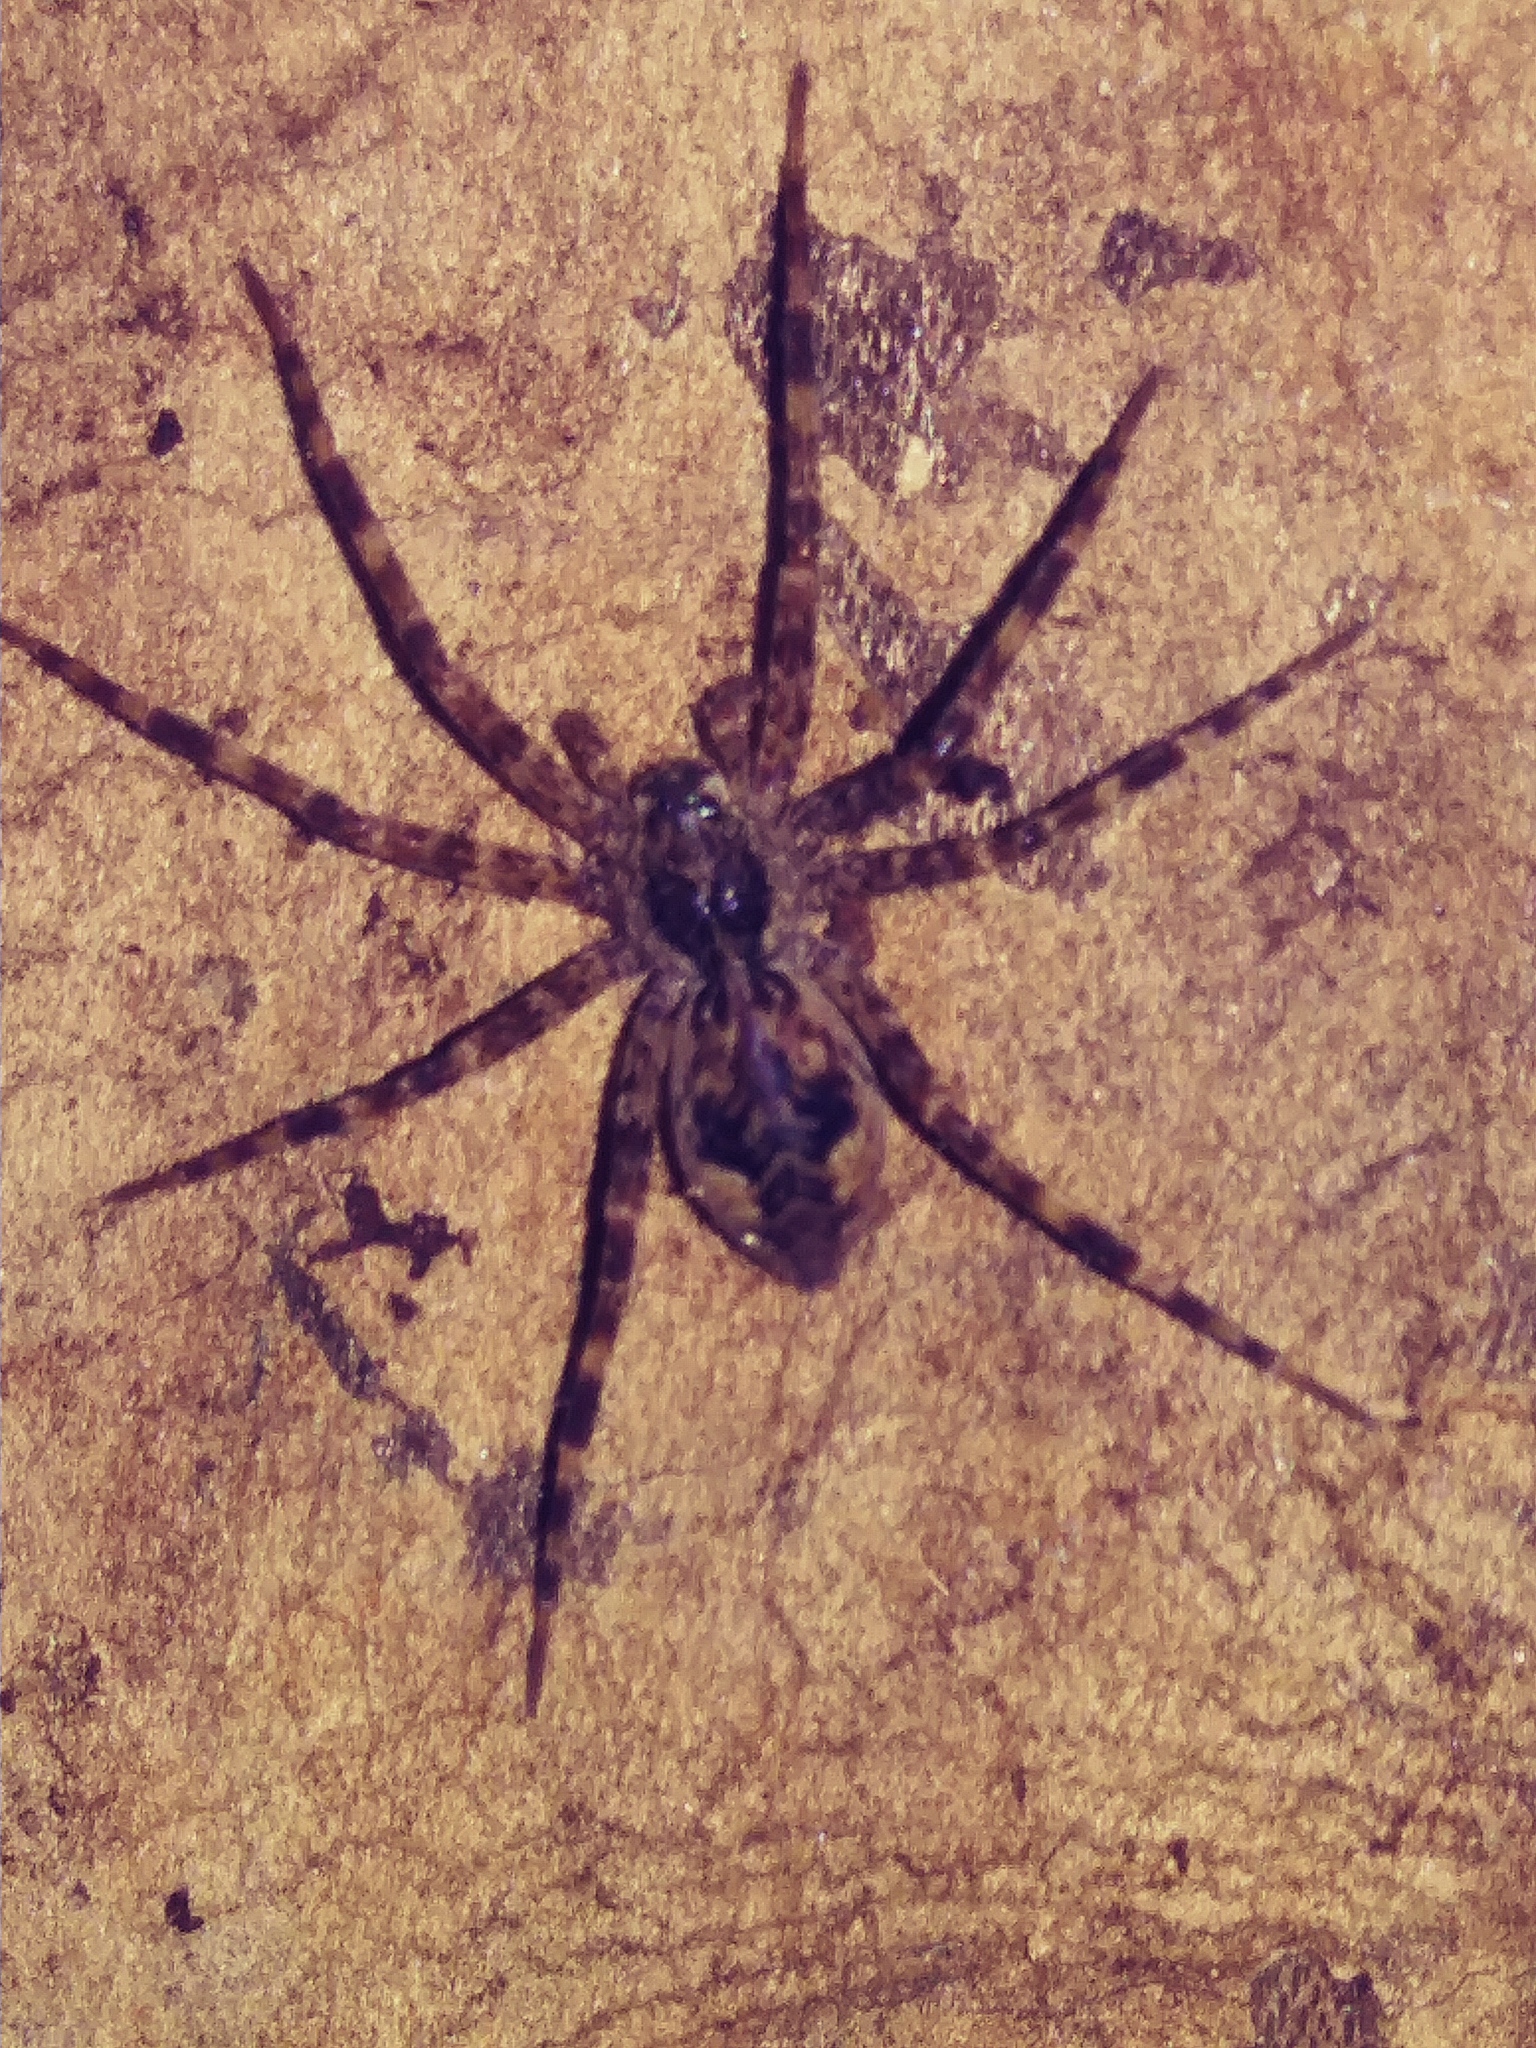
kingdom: Animalia
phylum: Arthropoda
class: Arachnida
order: Araneae
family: Pisauridae
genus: Dolomedes
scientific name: Dolomedes tenebrosus
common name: Dark fishing spider
